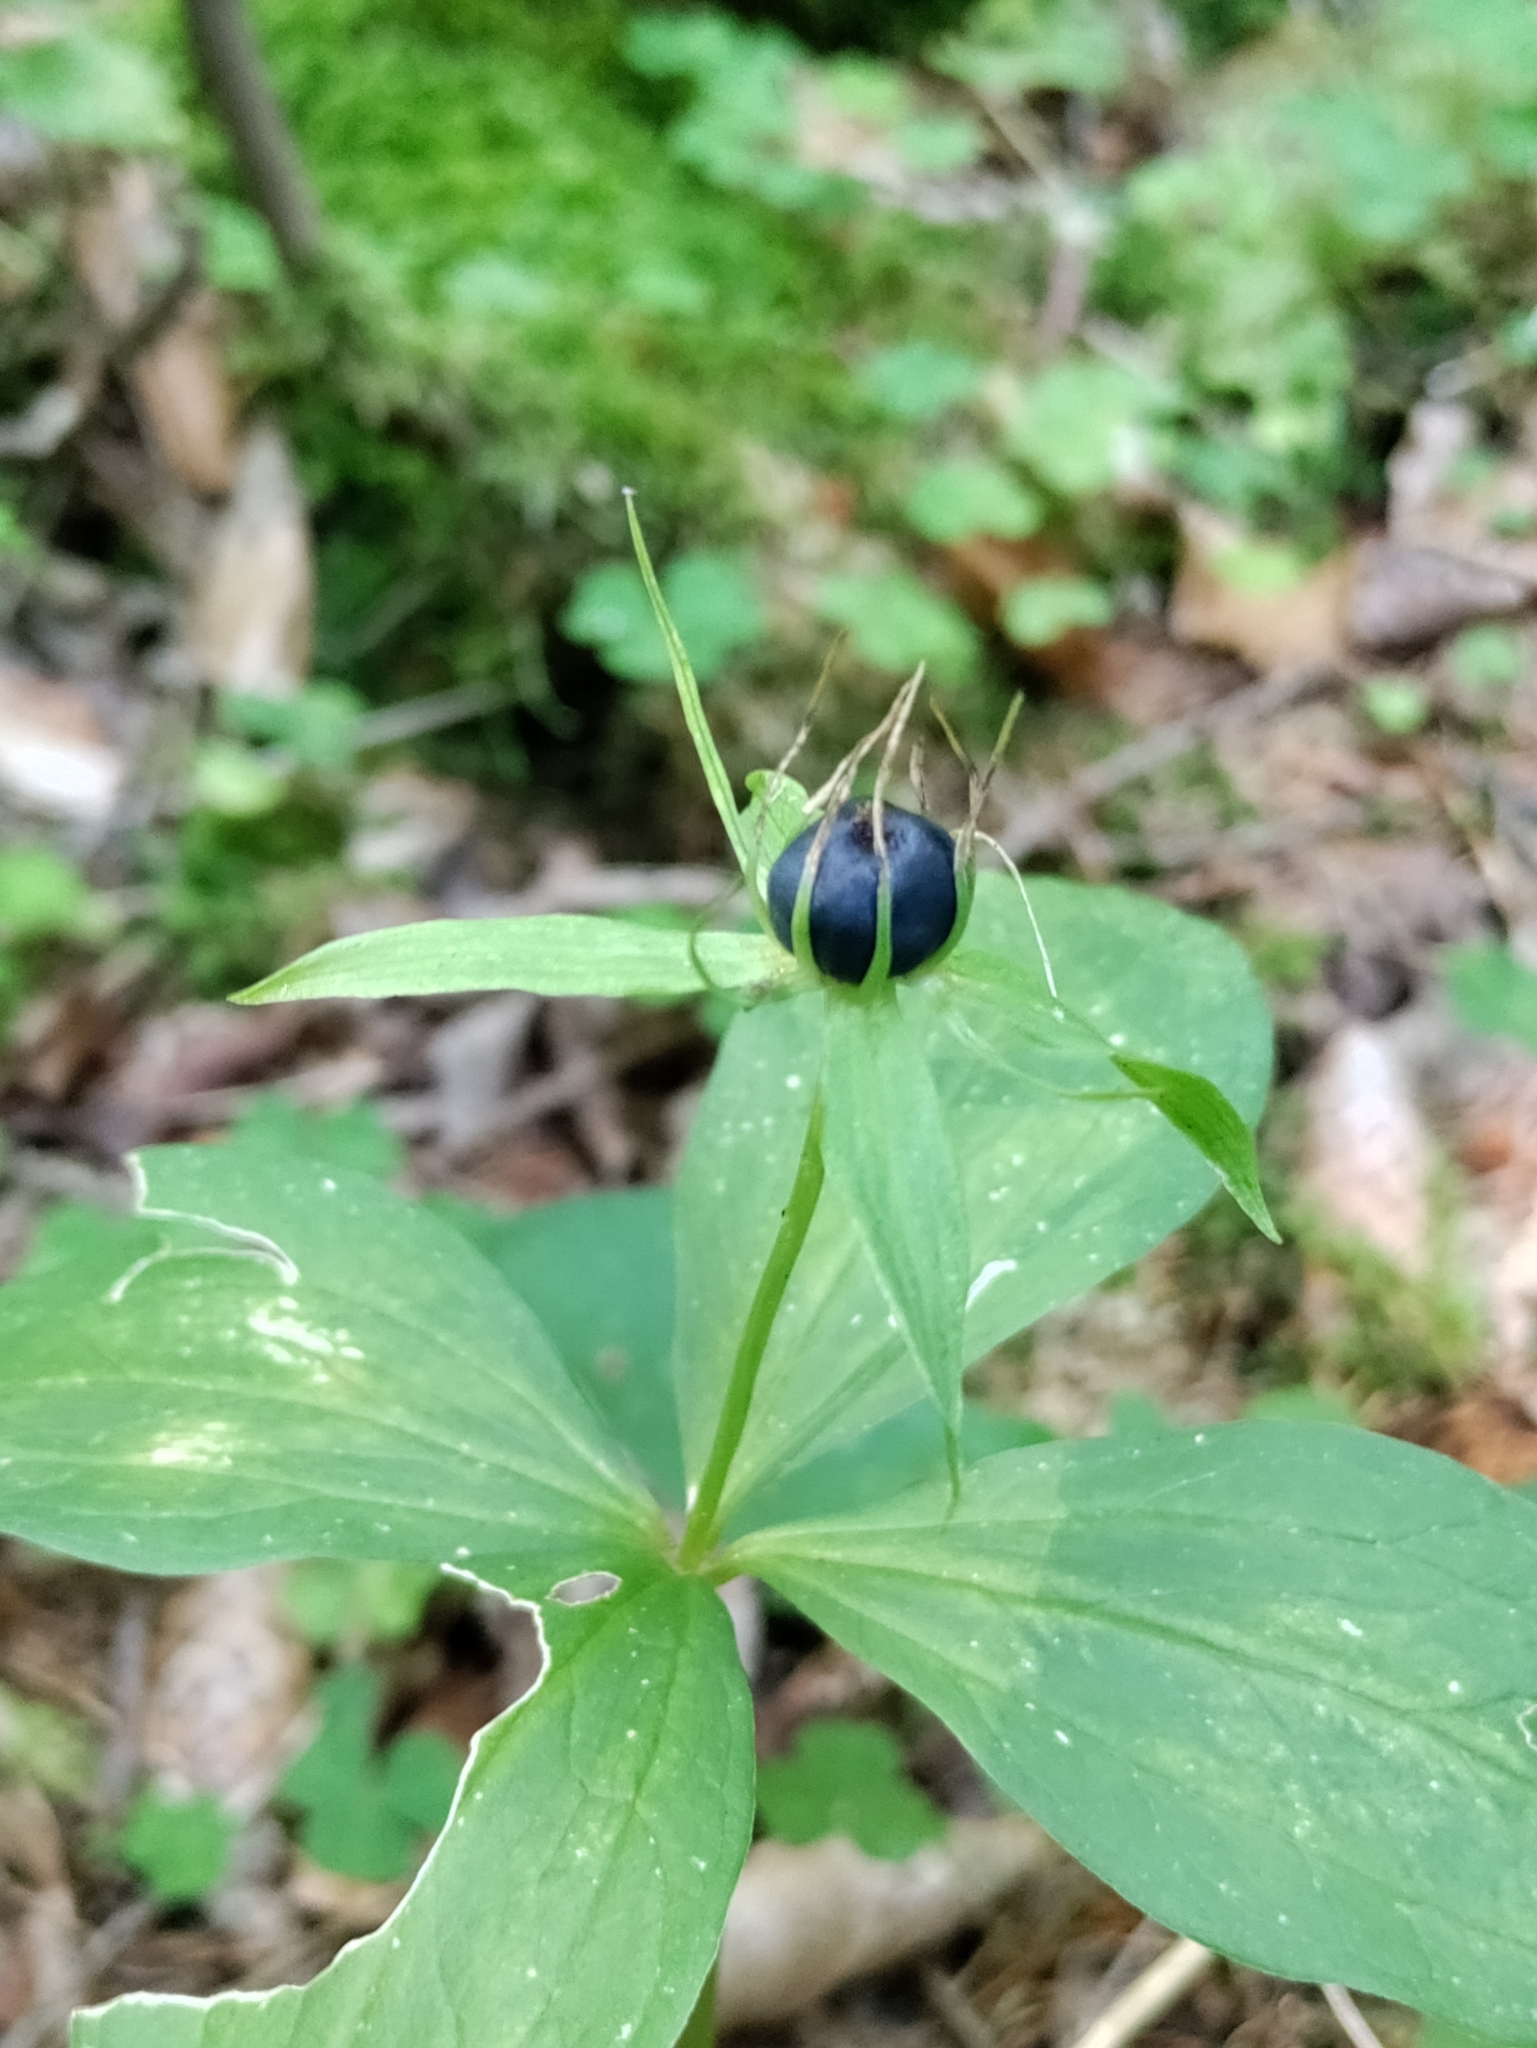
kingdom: Plantae
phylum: Tracheophyta
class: Liliopsida
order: Liliales
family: Melanthiaceae
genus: Paris
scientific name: Paris quadrifolia
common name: Herb-paris
